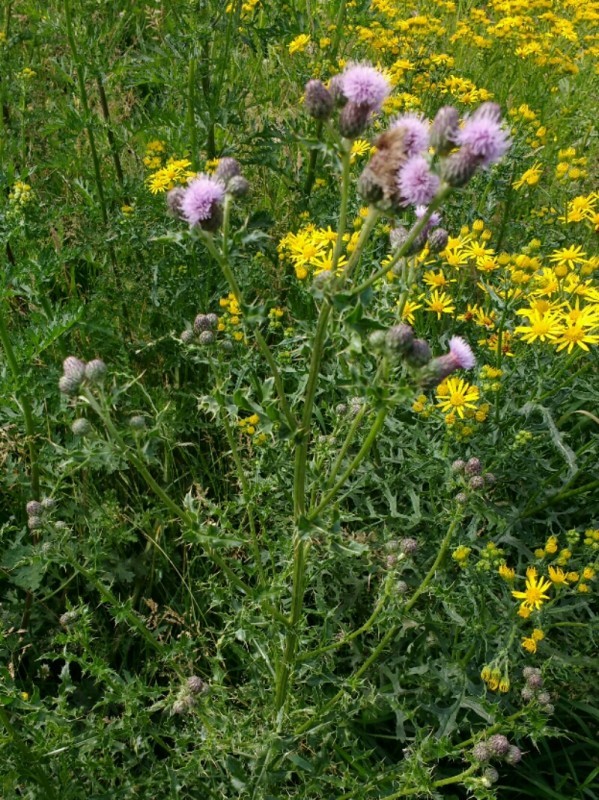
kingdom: Plantae
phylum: Tracheophyta
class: Magnoliopsida
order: Asterales
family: Asteraceae
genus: Cirsium
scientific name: Cirsium arvense
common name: Creeping thistle
